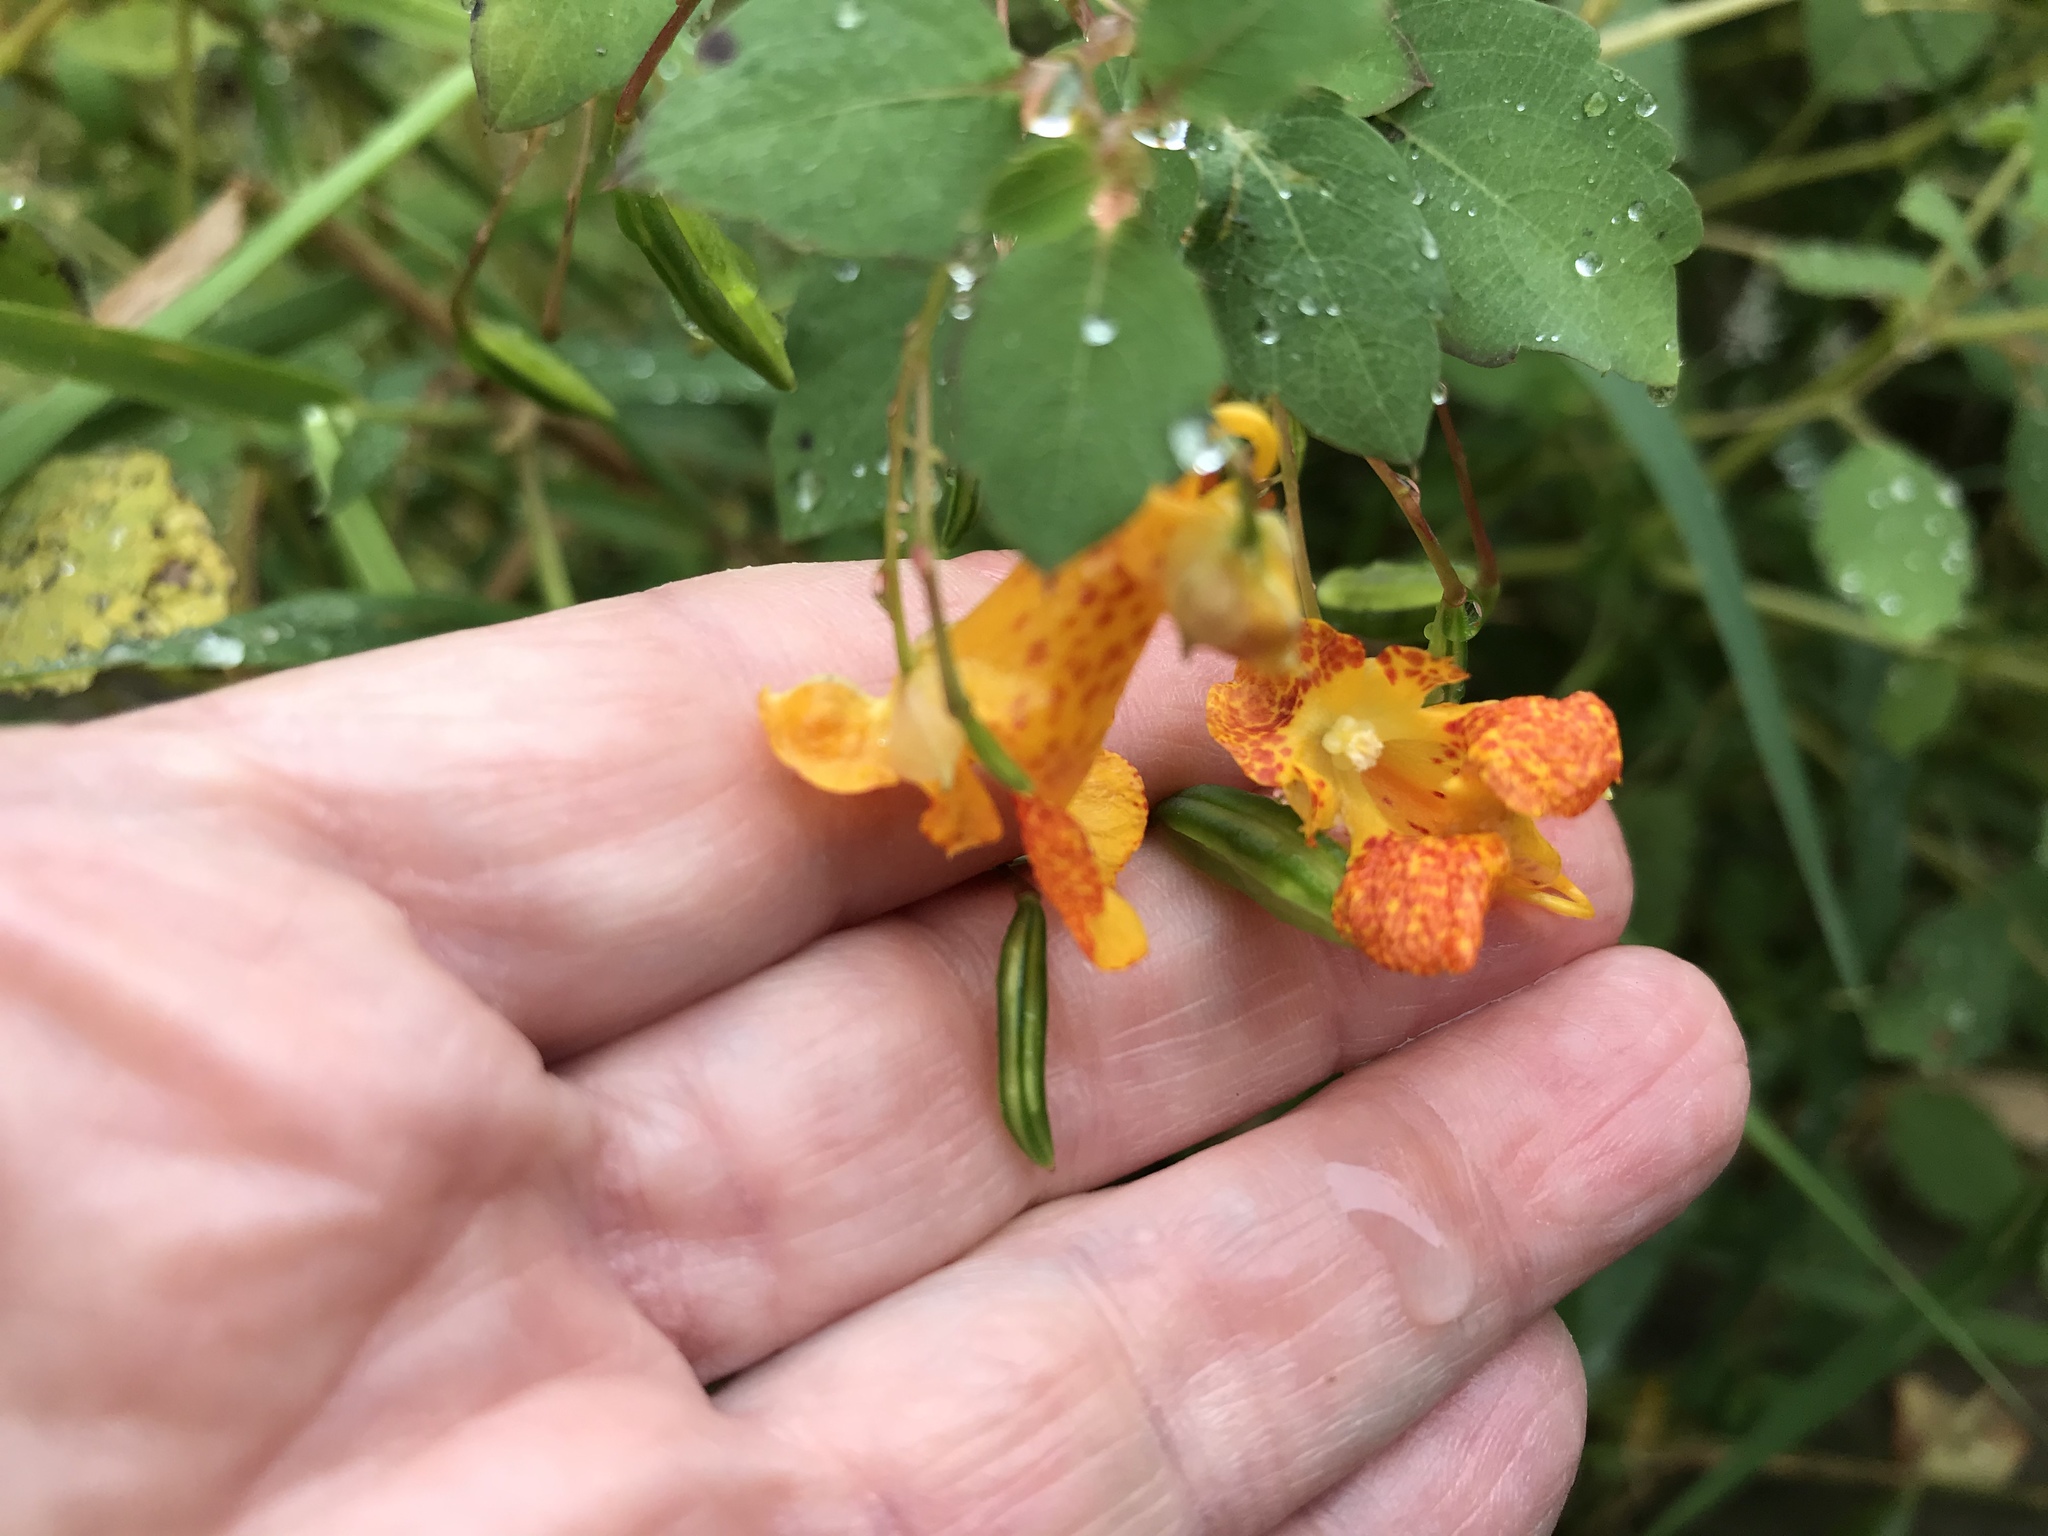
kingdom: Plantae
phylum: Tracheophyta
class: Magnoliopsida
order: Ericales
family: Balsaminaceae
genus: Impatiens
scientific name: Impatiens capensis
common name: Orange balsam
